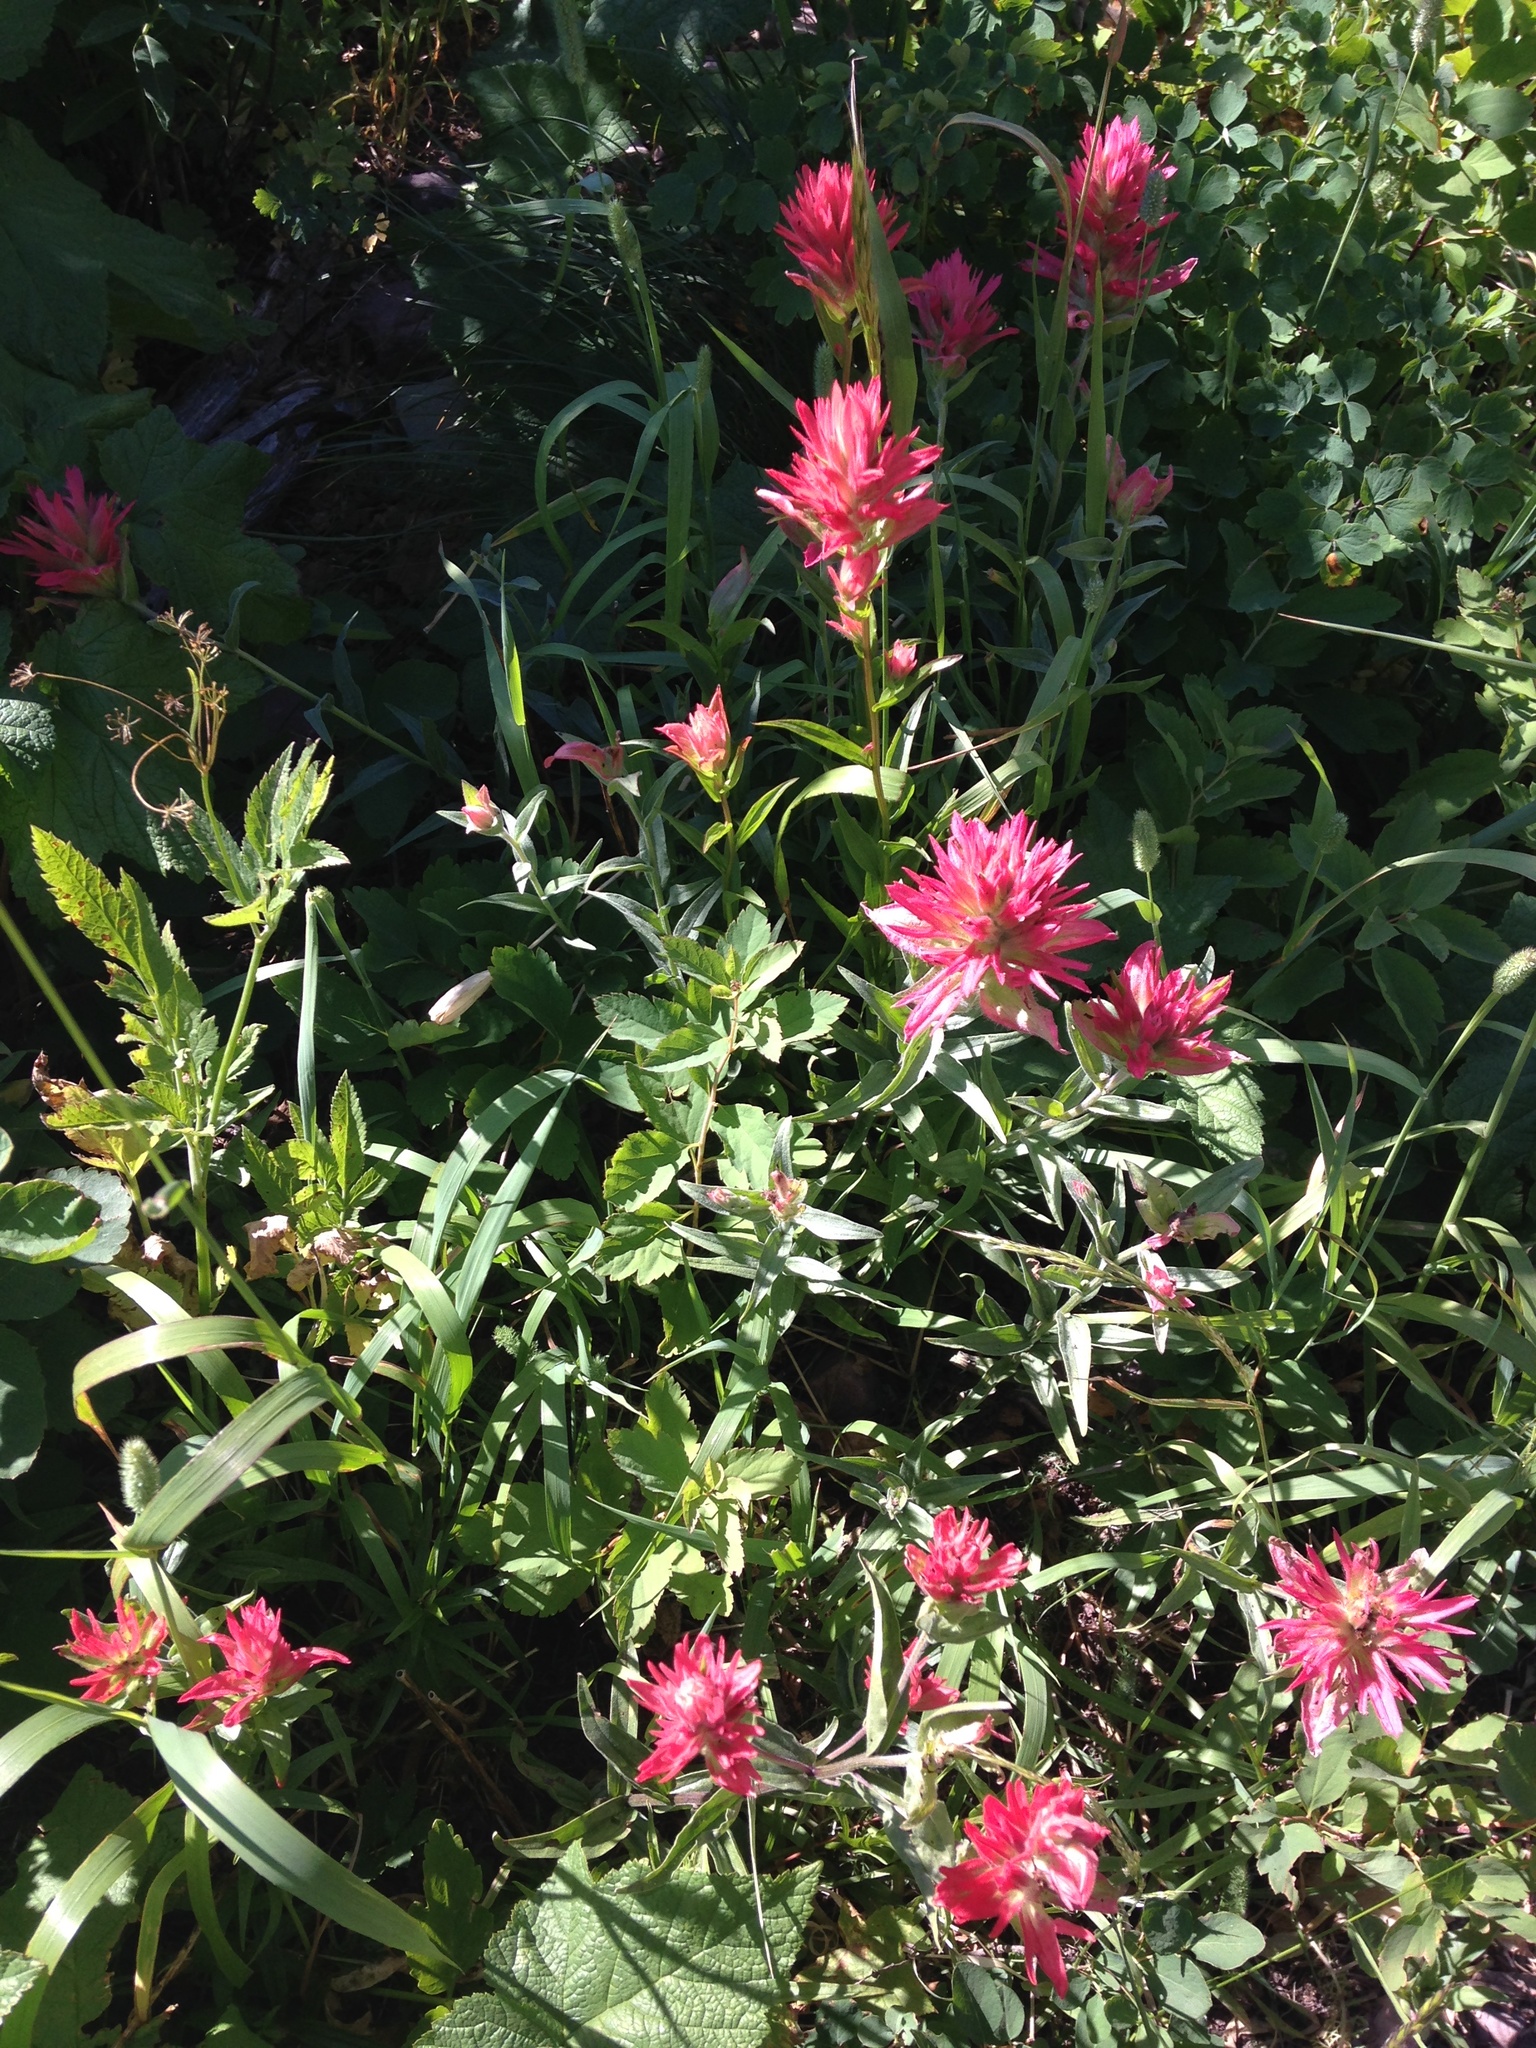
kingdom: Plantae
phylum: Tracheophyta
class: Magnoliopsida
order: Lamiales
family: Orobanchaceae
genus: Castilleja
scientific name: Castilleja miniata
